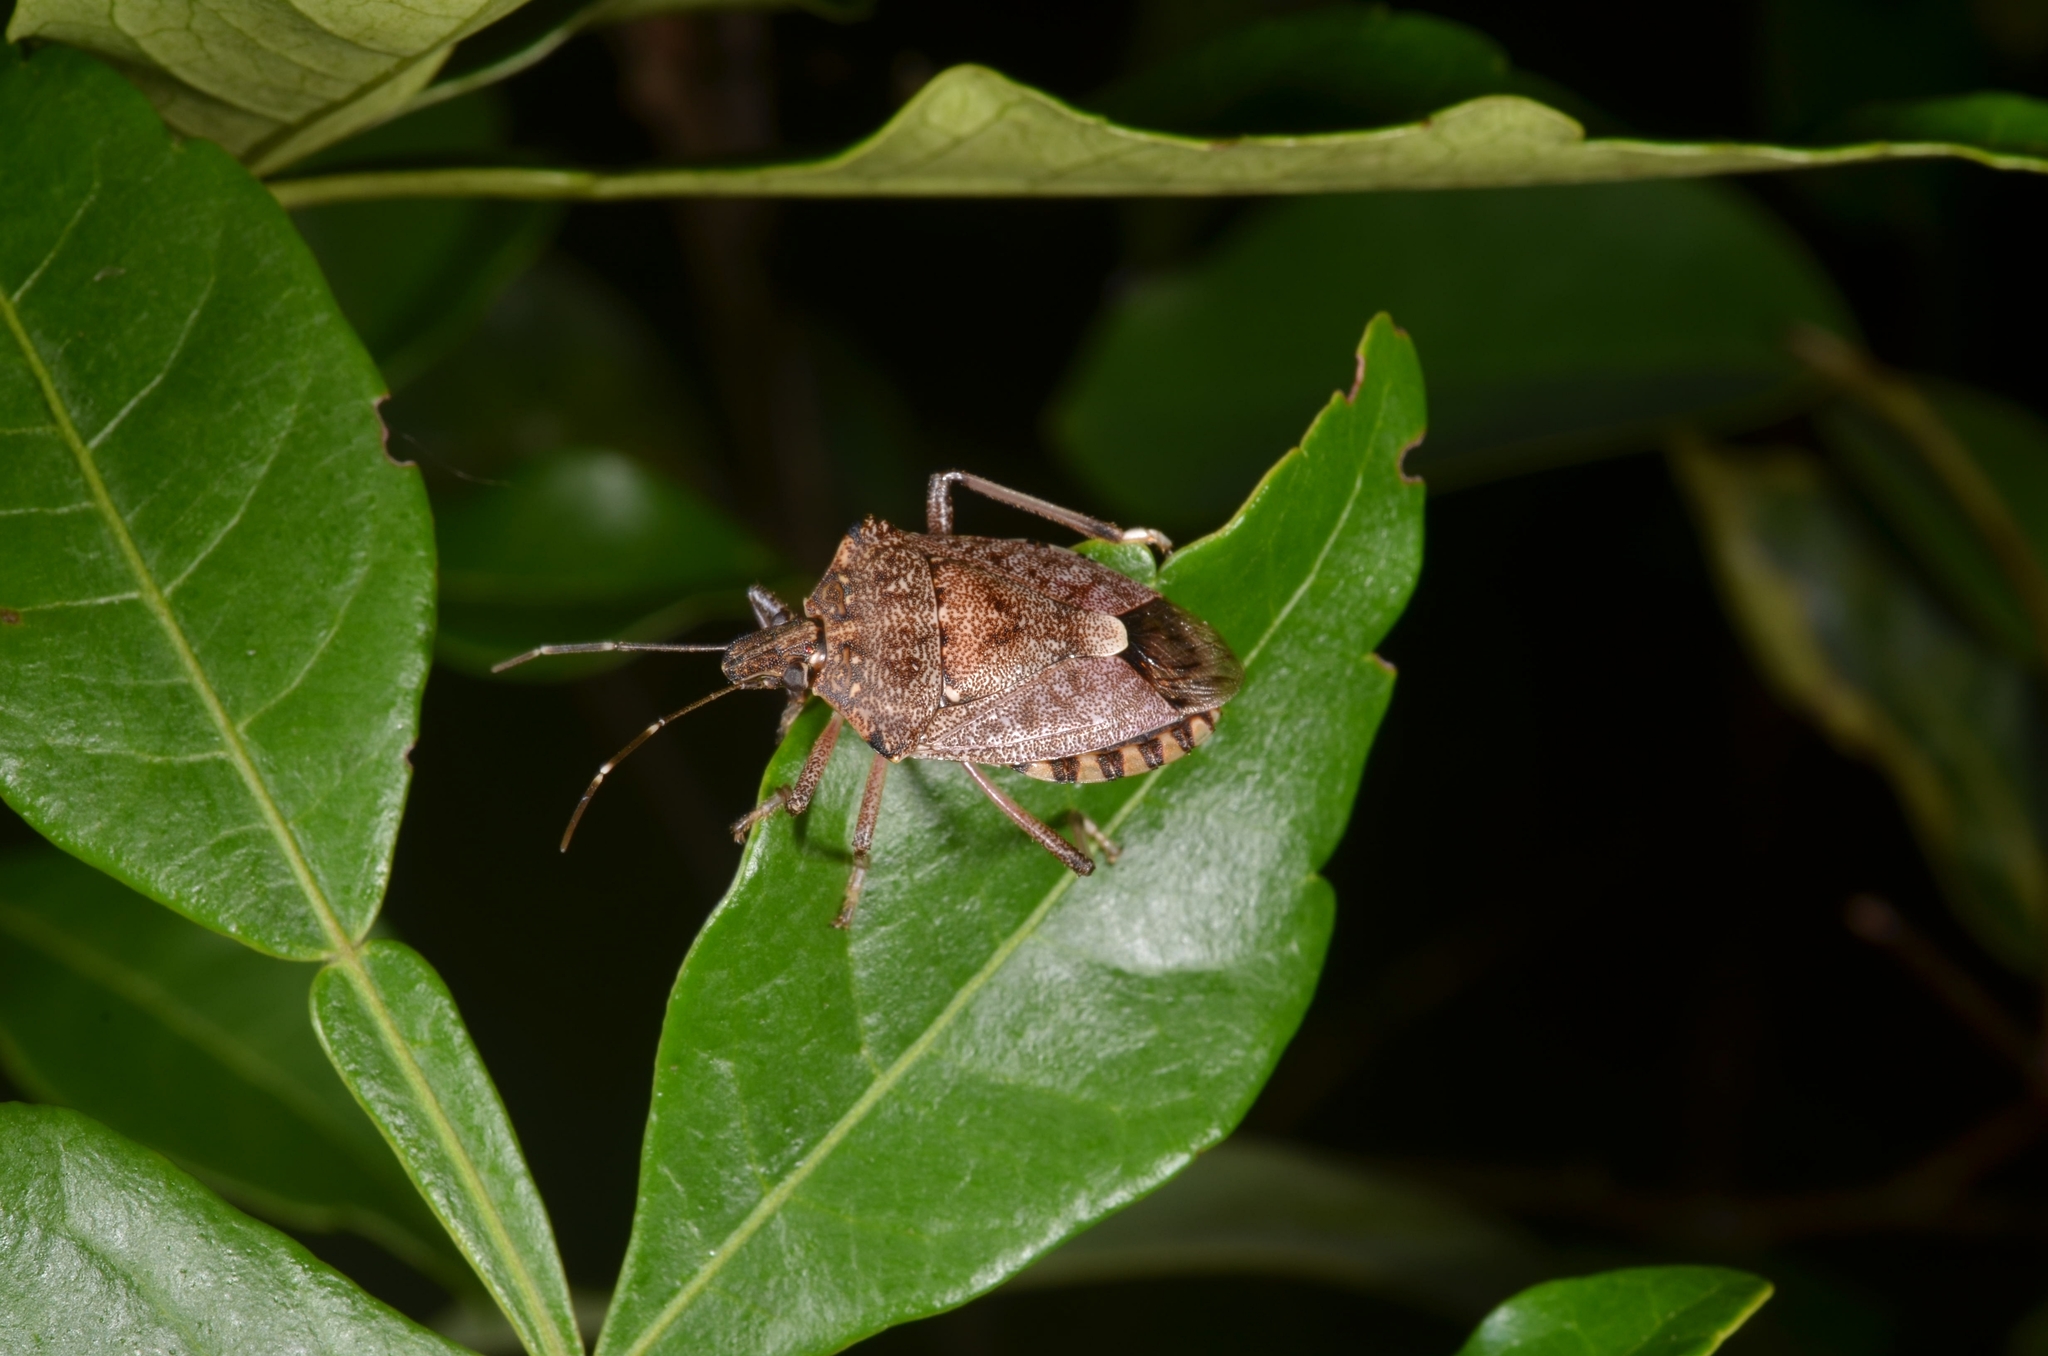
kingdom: Animalia
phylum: Arthropoda
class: Insecta
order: Hemiptera
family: Pentatomidae
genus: Halyomorpha
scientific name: Halyomorpha halys
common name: Brown marmorated stink bug
